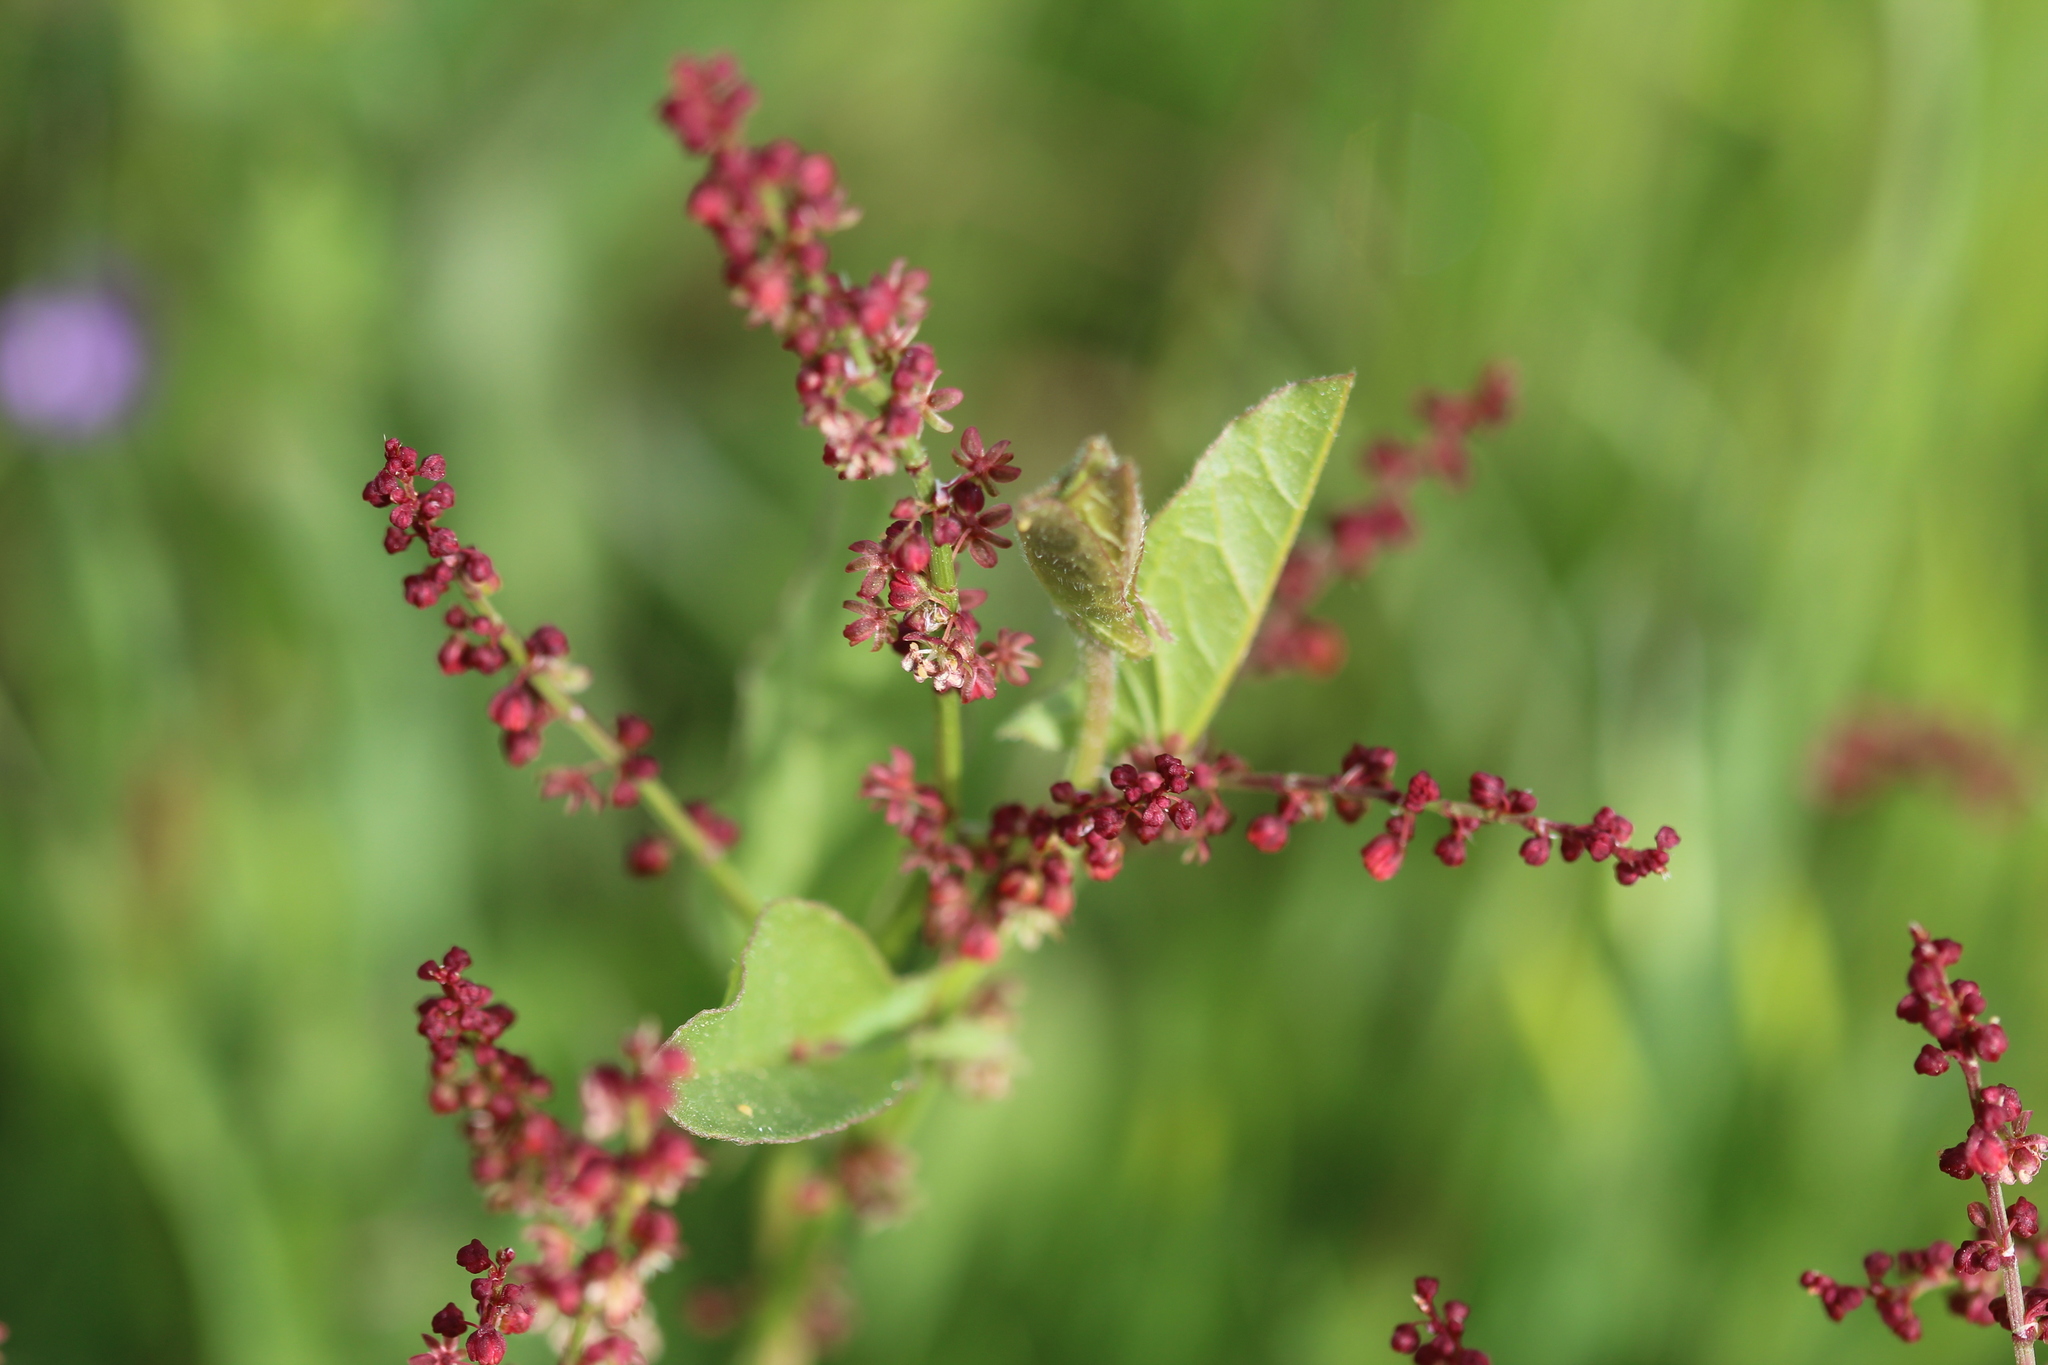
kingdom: Plantae
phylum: Tracheophyta
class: Magnoliopsida
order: Caryophyllales
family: Polygonaceae
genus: Rumex
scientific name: Rumex acetosella
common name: Common sheep sorrel
